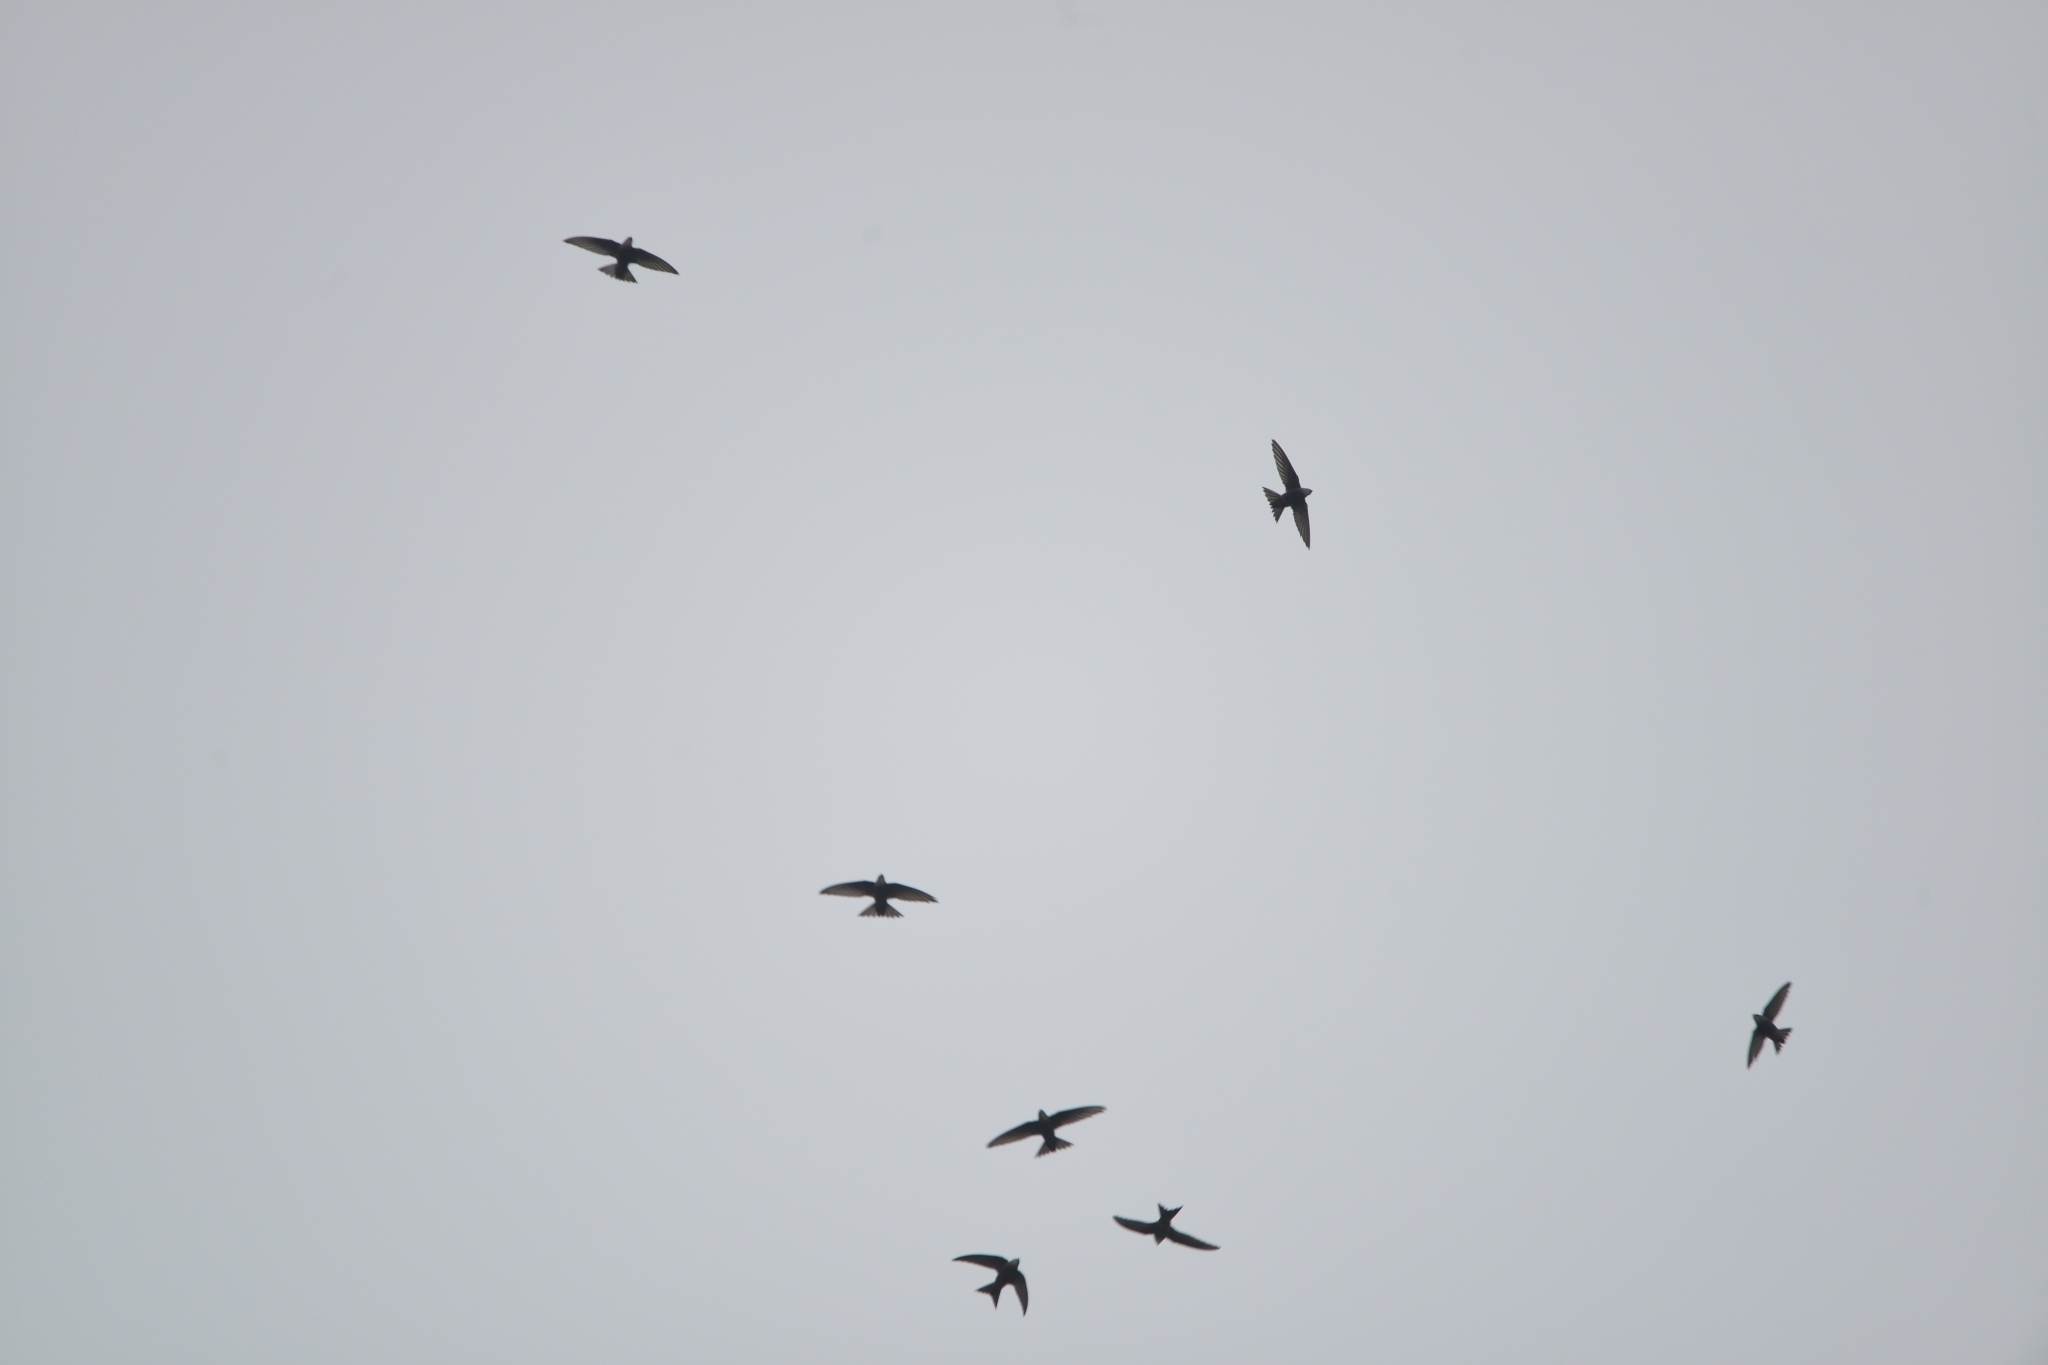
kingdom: Animalia
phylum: Chordata
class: Aves
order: Apodiformes
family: Apodidae
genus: Apus
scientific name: Apus pacificus
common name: Pacific swift
